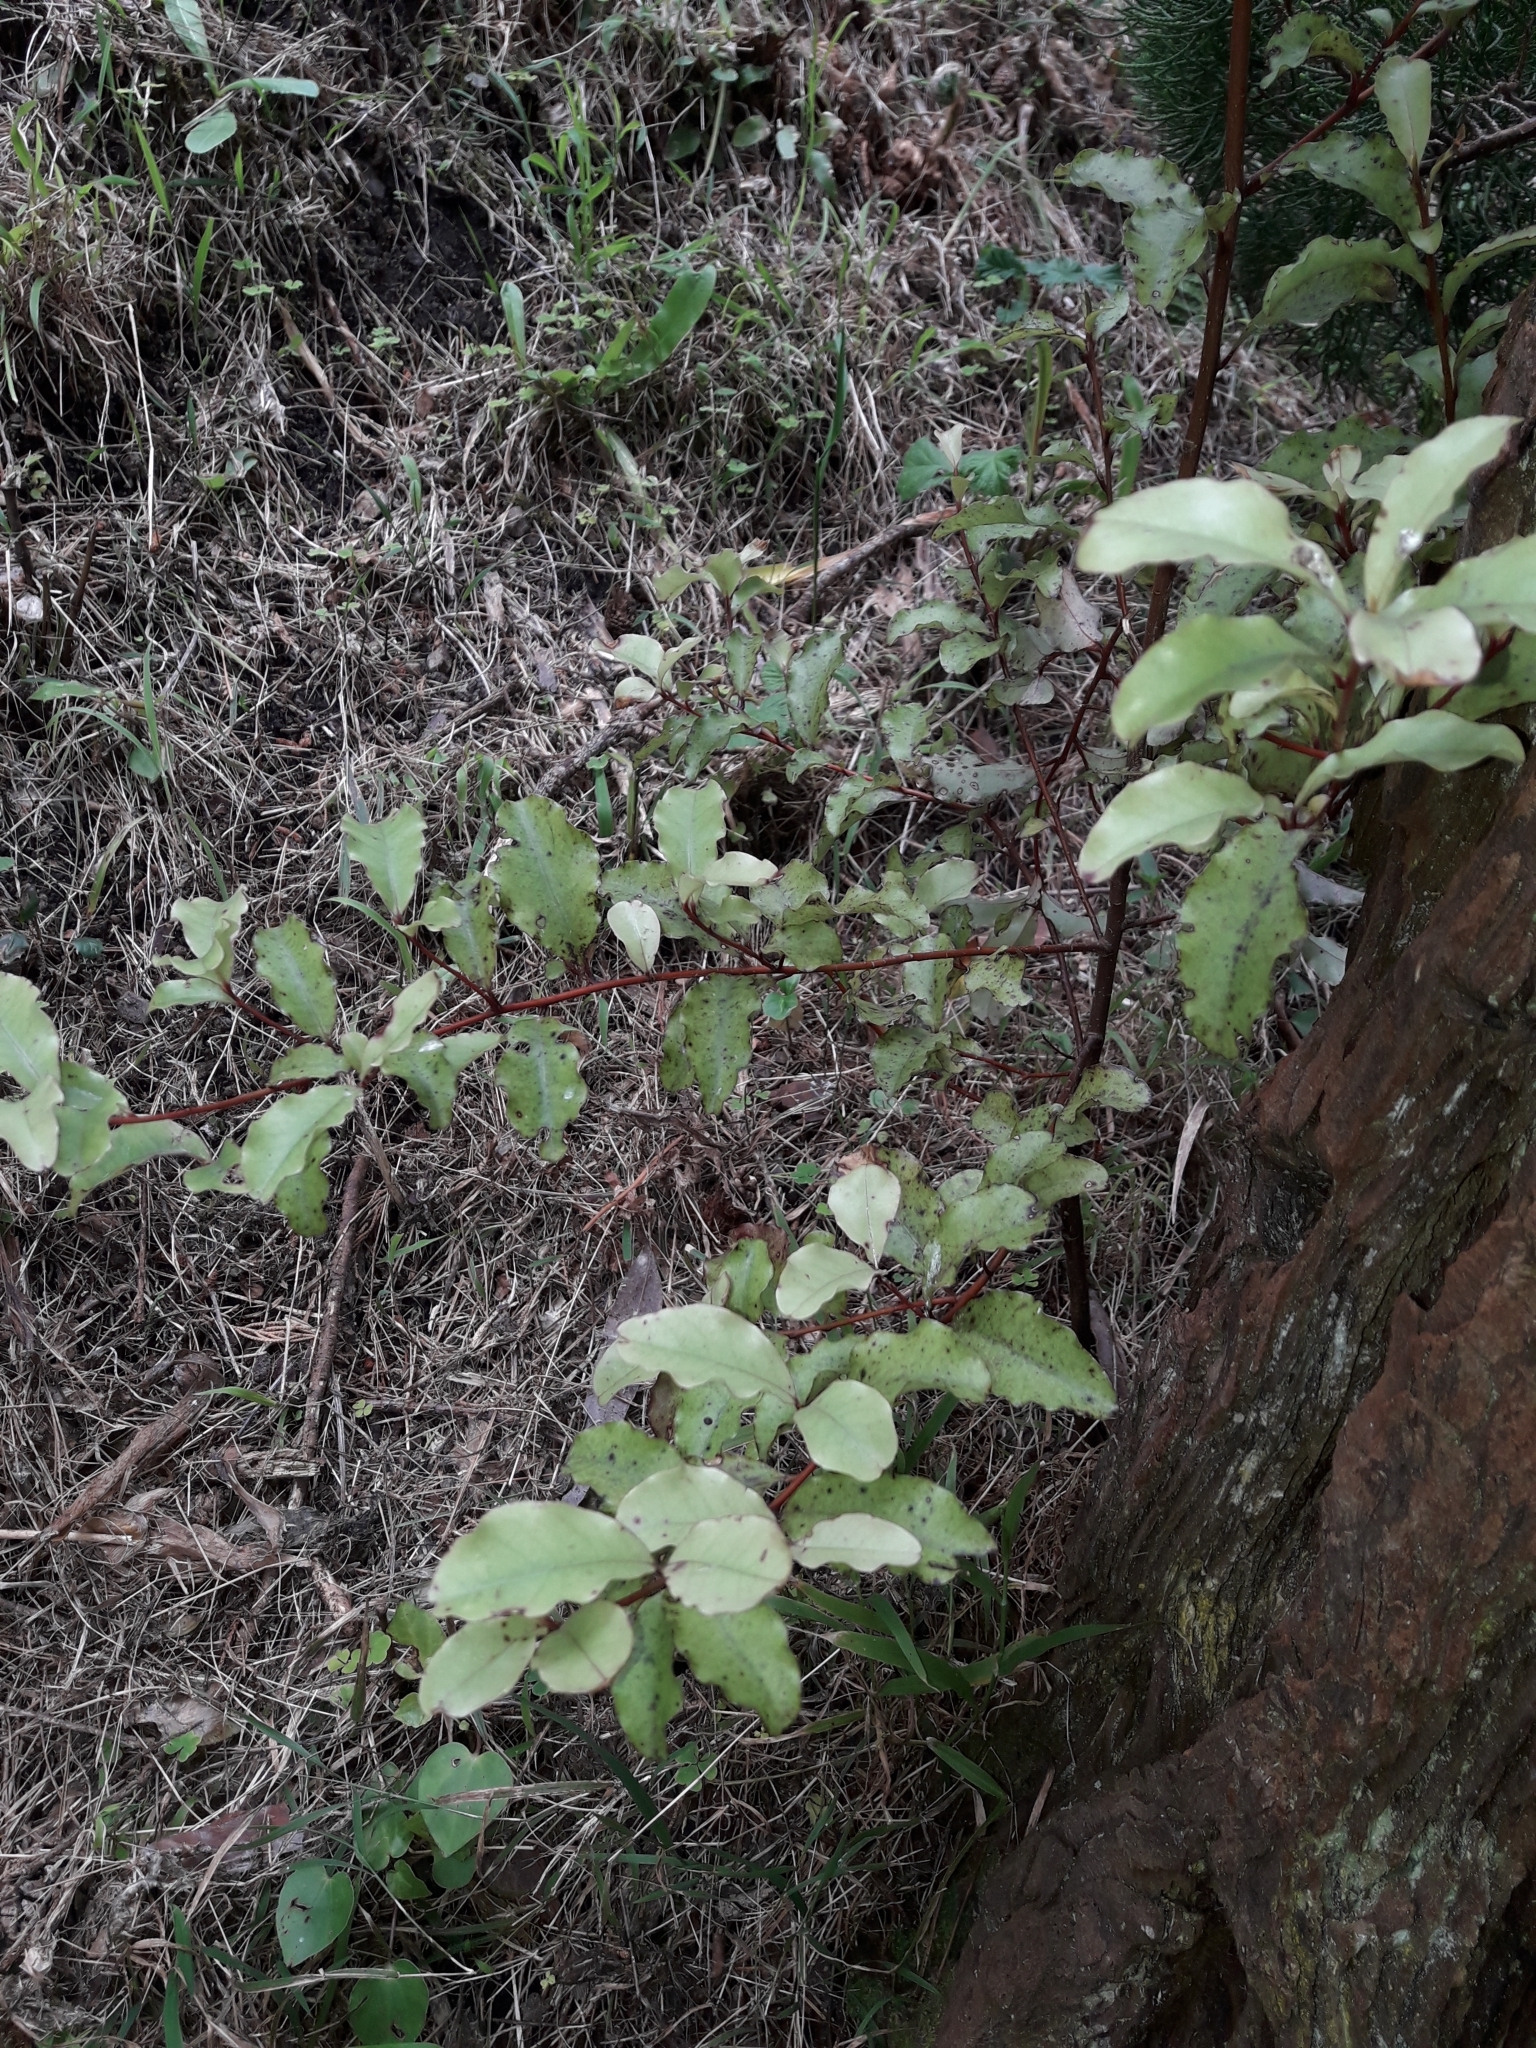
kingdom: Plantae
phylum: Tracheophyta
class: Magnoliopsida
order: Ericales
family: Primulaceae
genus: Myrsine
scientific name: Myrsine australis
